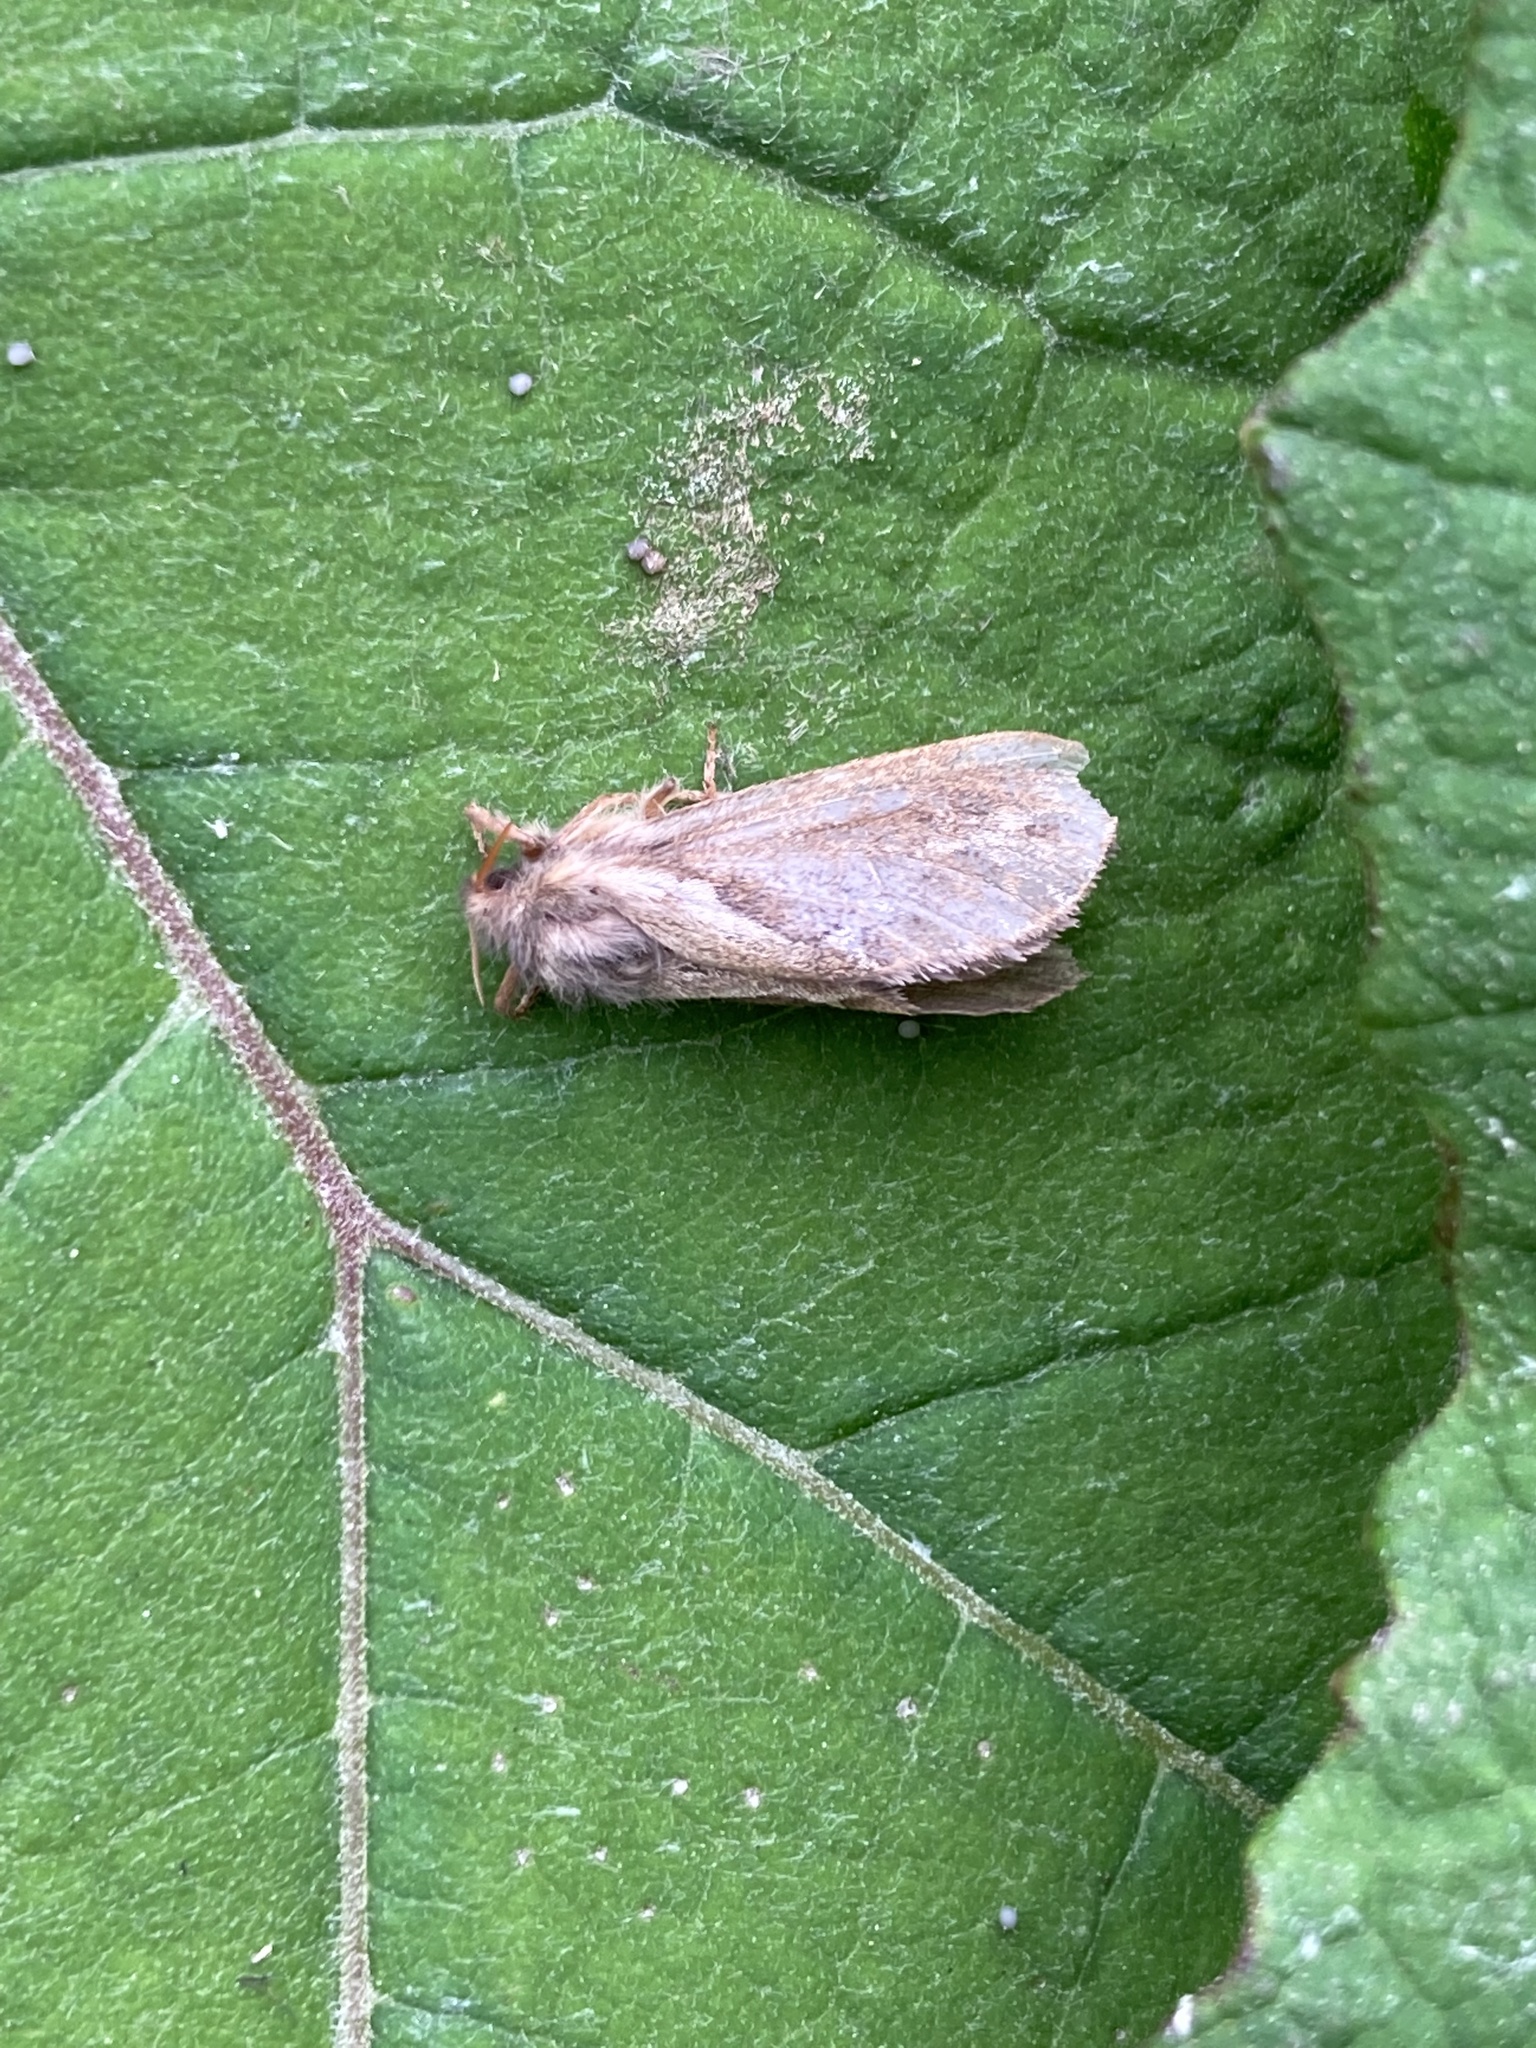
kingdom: Animalia
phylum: Arthropoda
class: Insecta
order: Lepidoptera
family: Hepialidae
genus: Korscheltellus
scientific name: Korscheltellus lupulina
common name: Common swift
